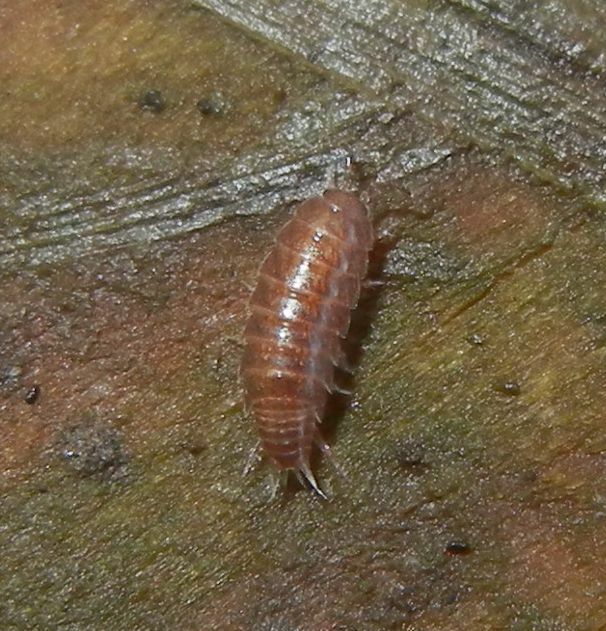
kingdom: Animalia
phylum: Arthropoda
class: Malacostraca
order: Isopoda
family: Trichoniscidae
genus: Trichoniscus
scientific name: Trichoniscus
